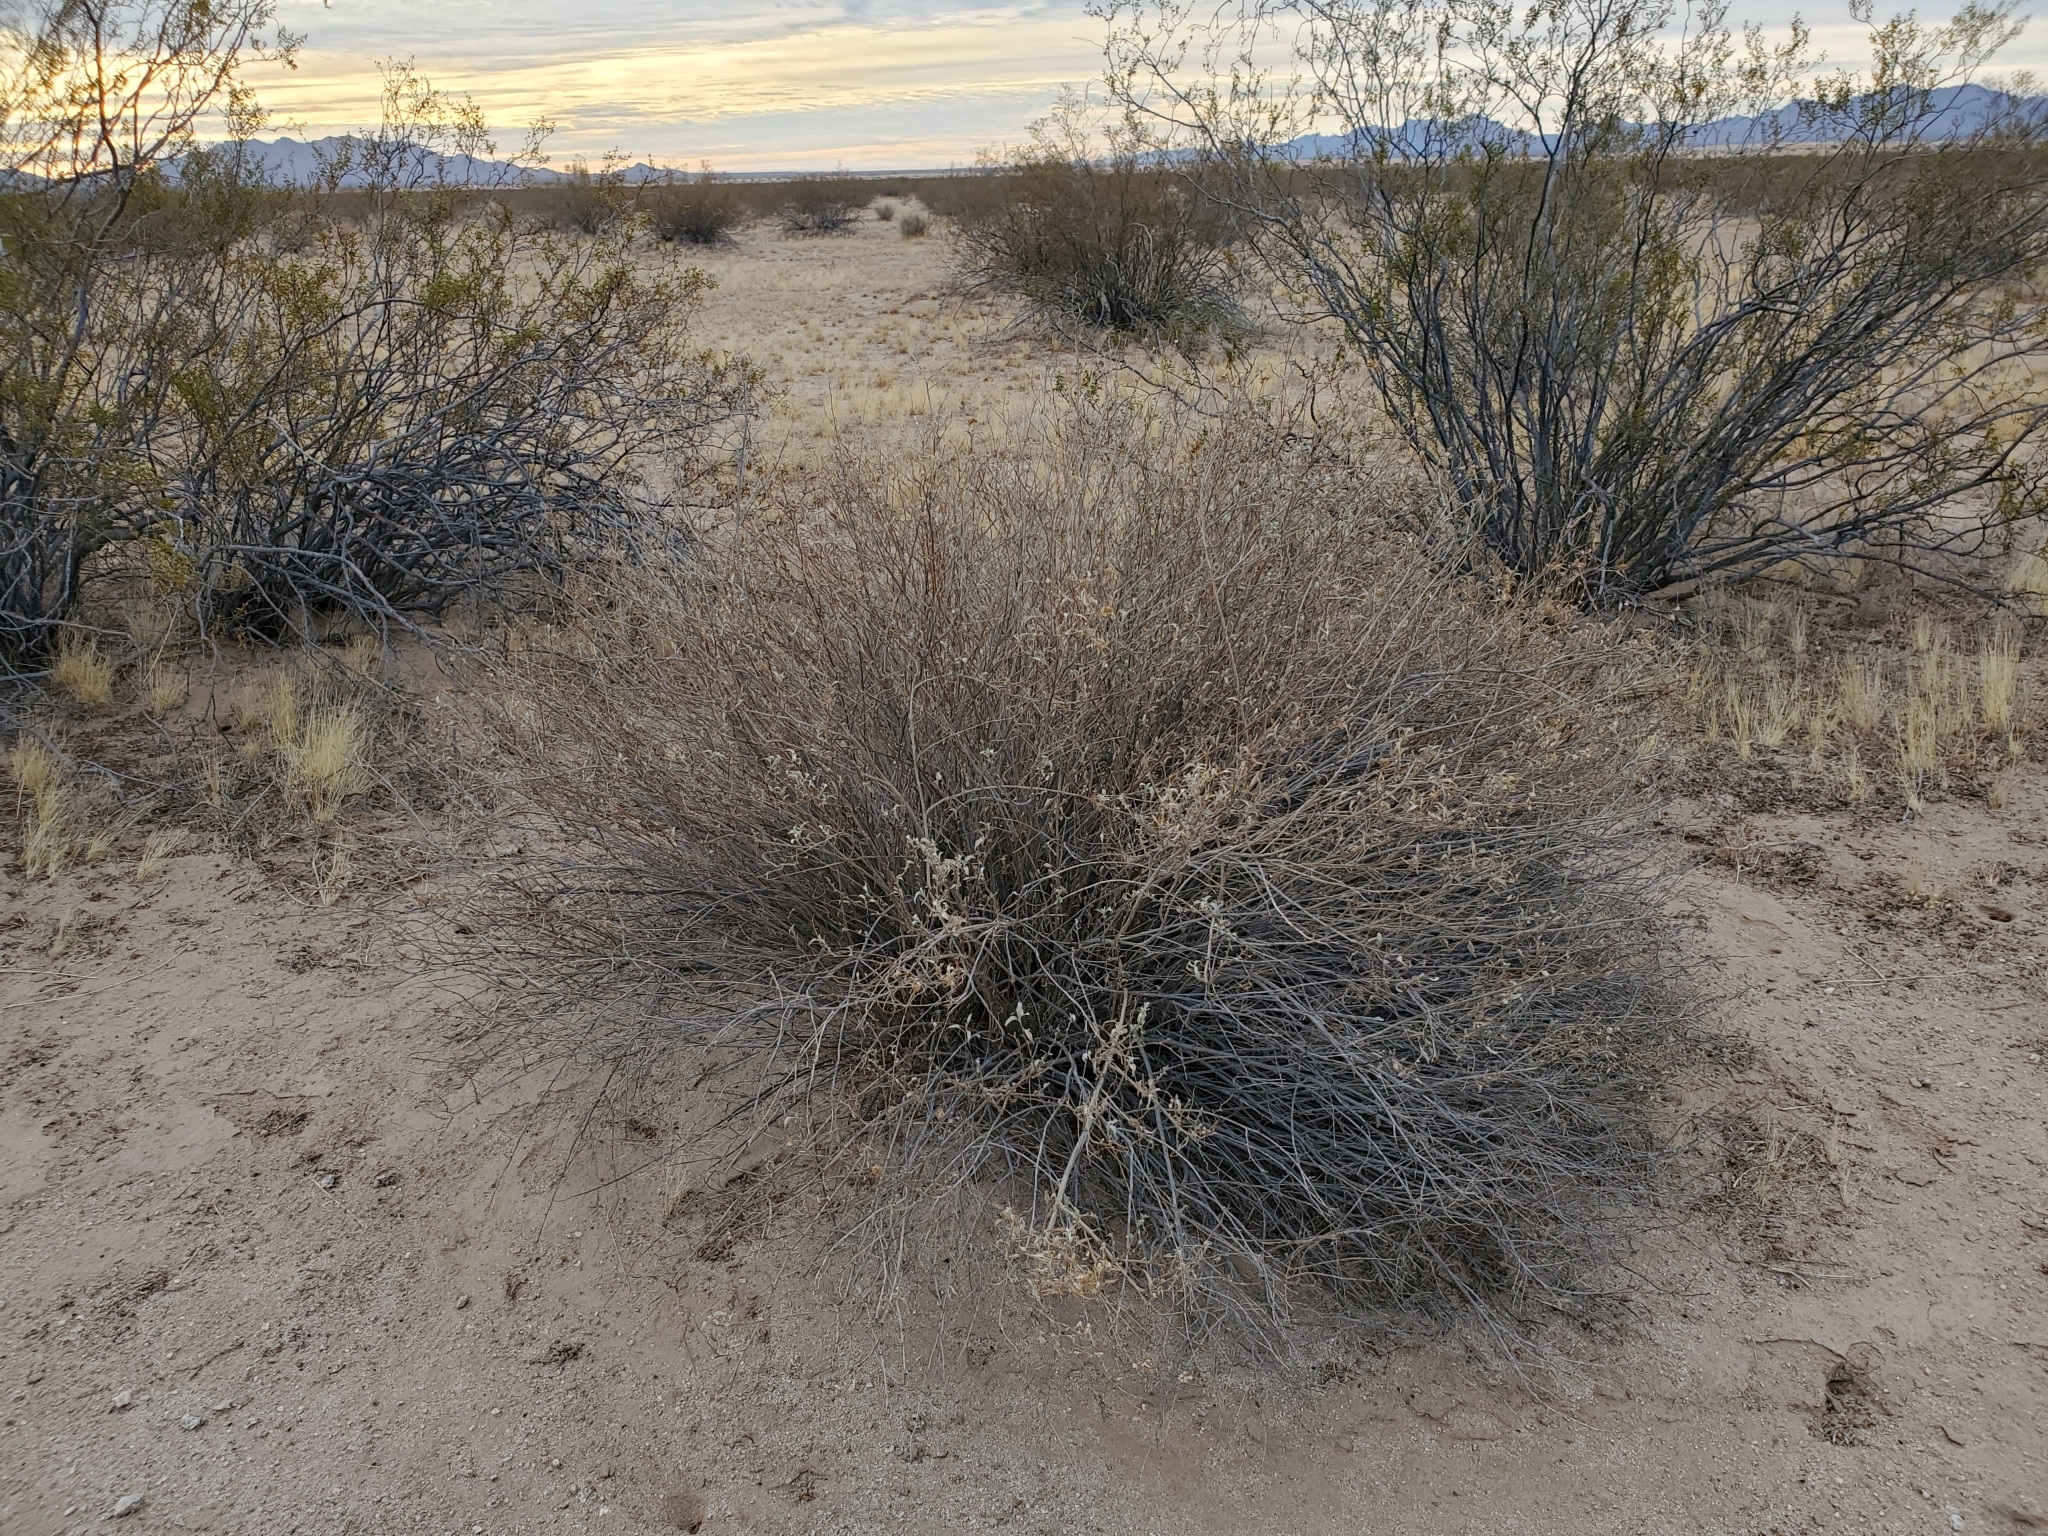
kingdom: Plantae
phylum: Tracheophyta
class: Magnoliopsida
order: Asterales
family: Asteraceae
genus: Ambrosia
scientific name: Ambrosia deltoidea
